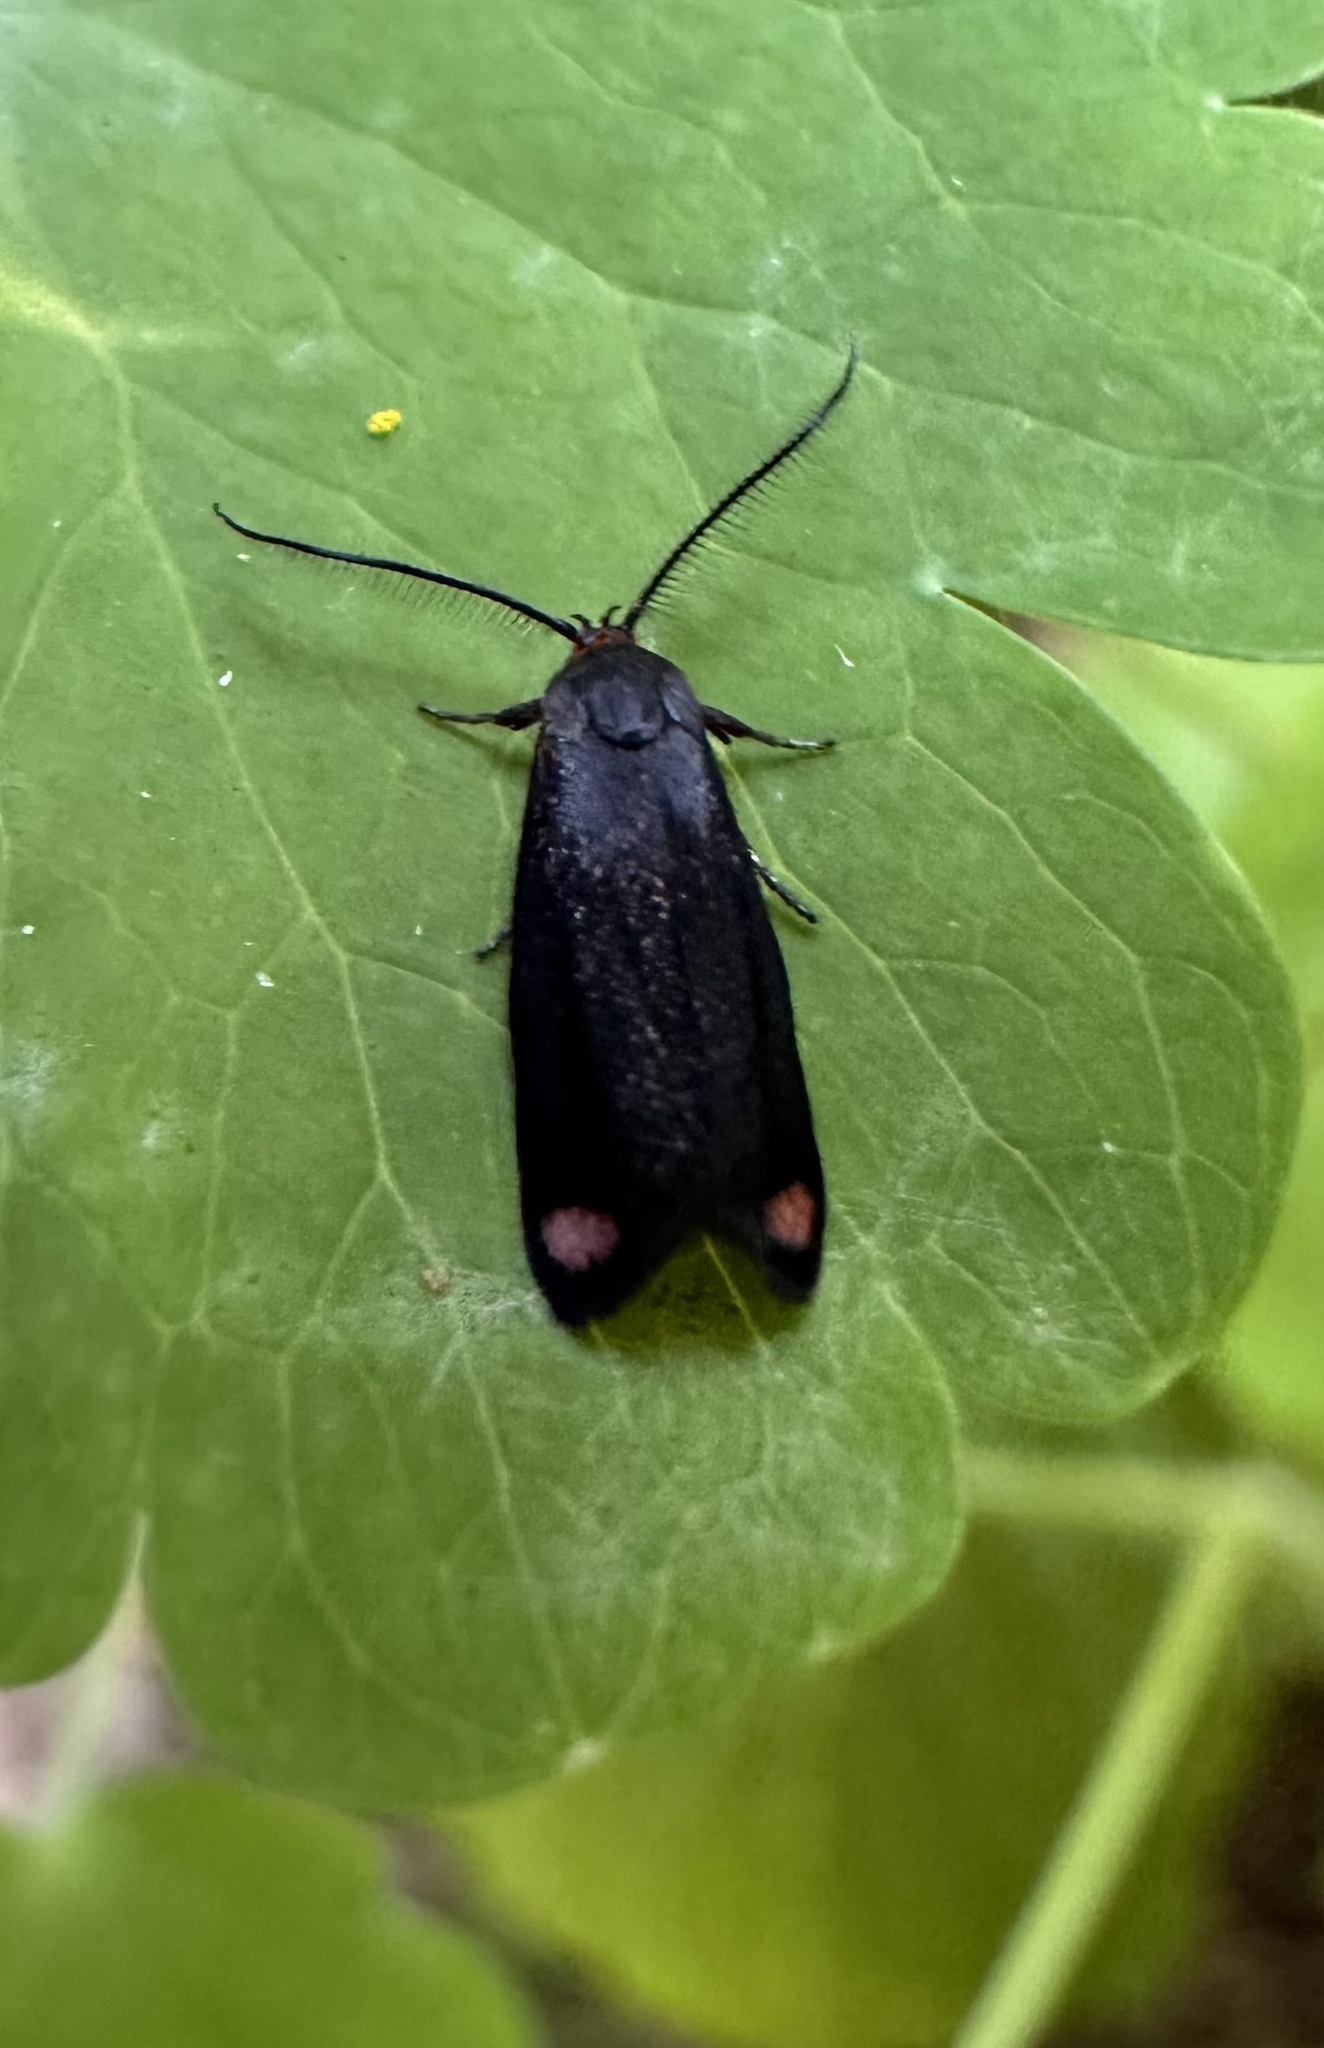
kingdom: Animalia
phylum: Arthropoda
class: Insecta
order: Lepidoptera
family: Oecophoridae
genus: Lelita
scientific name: Lelita acmaea
